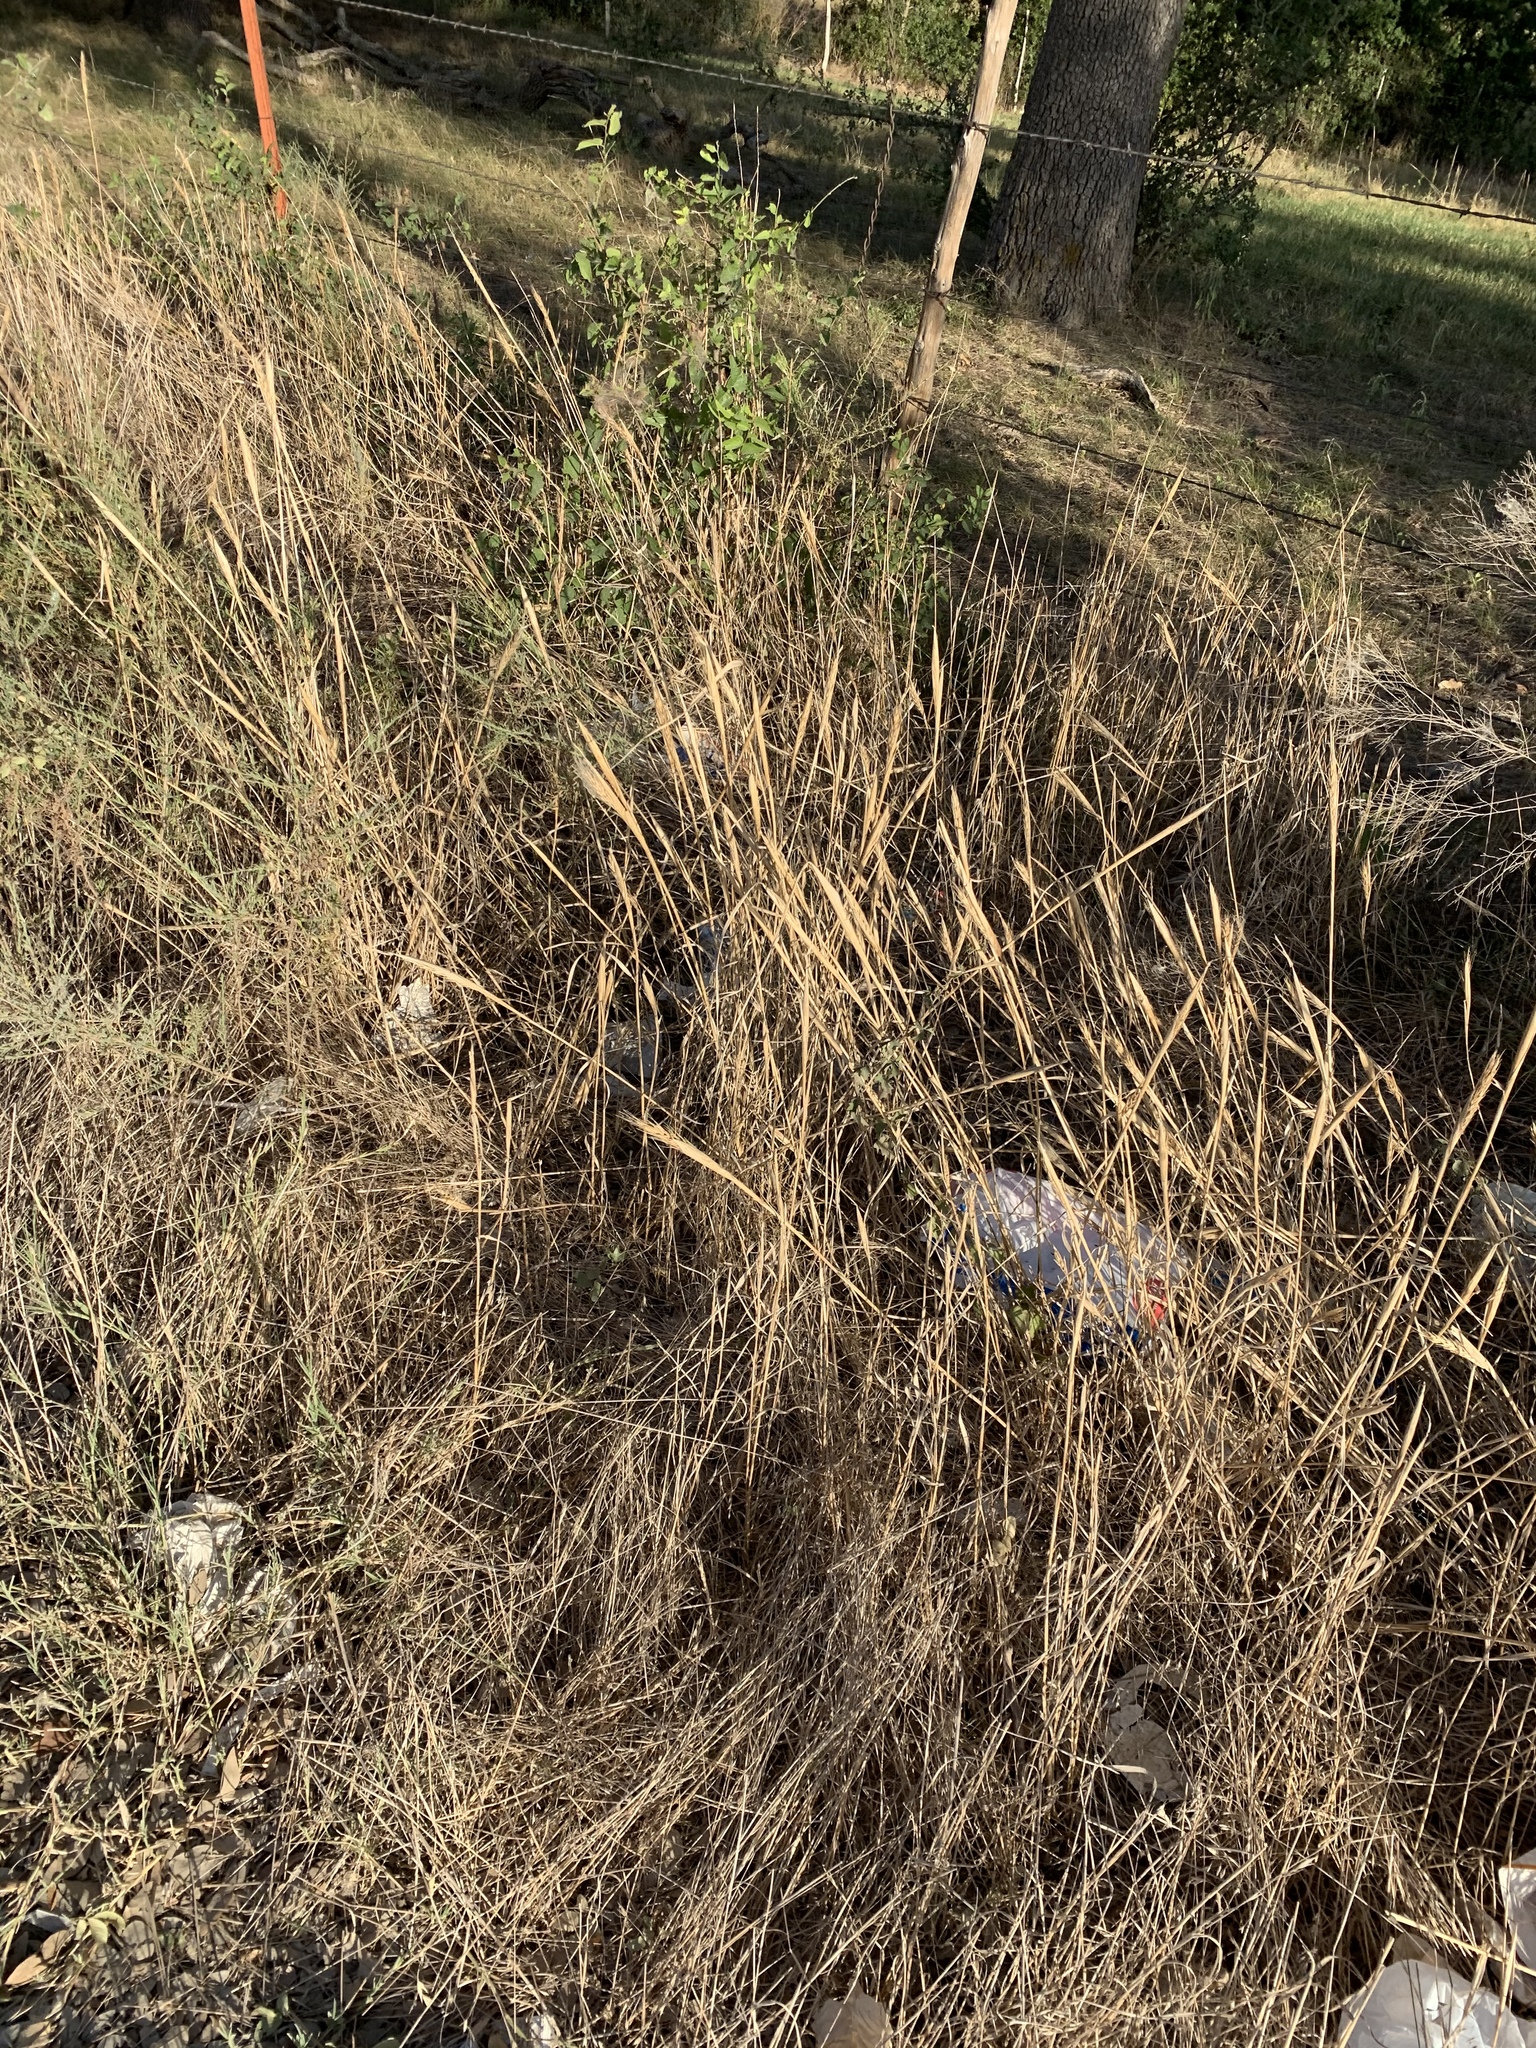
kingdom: Plantae
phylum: Tracheophyta
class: Liliopsida
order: Poales
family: Poaceae
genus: Elymus
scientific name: Elymus virginicus
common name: Common eastern wildrye
